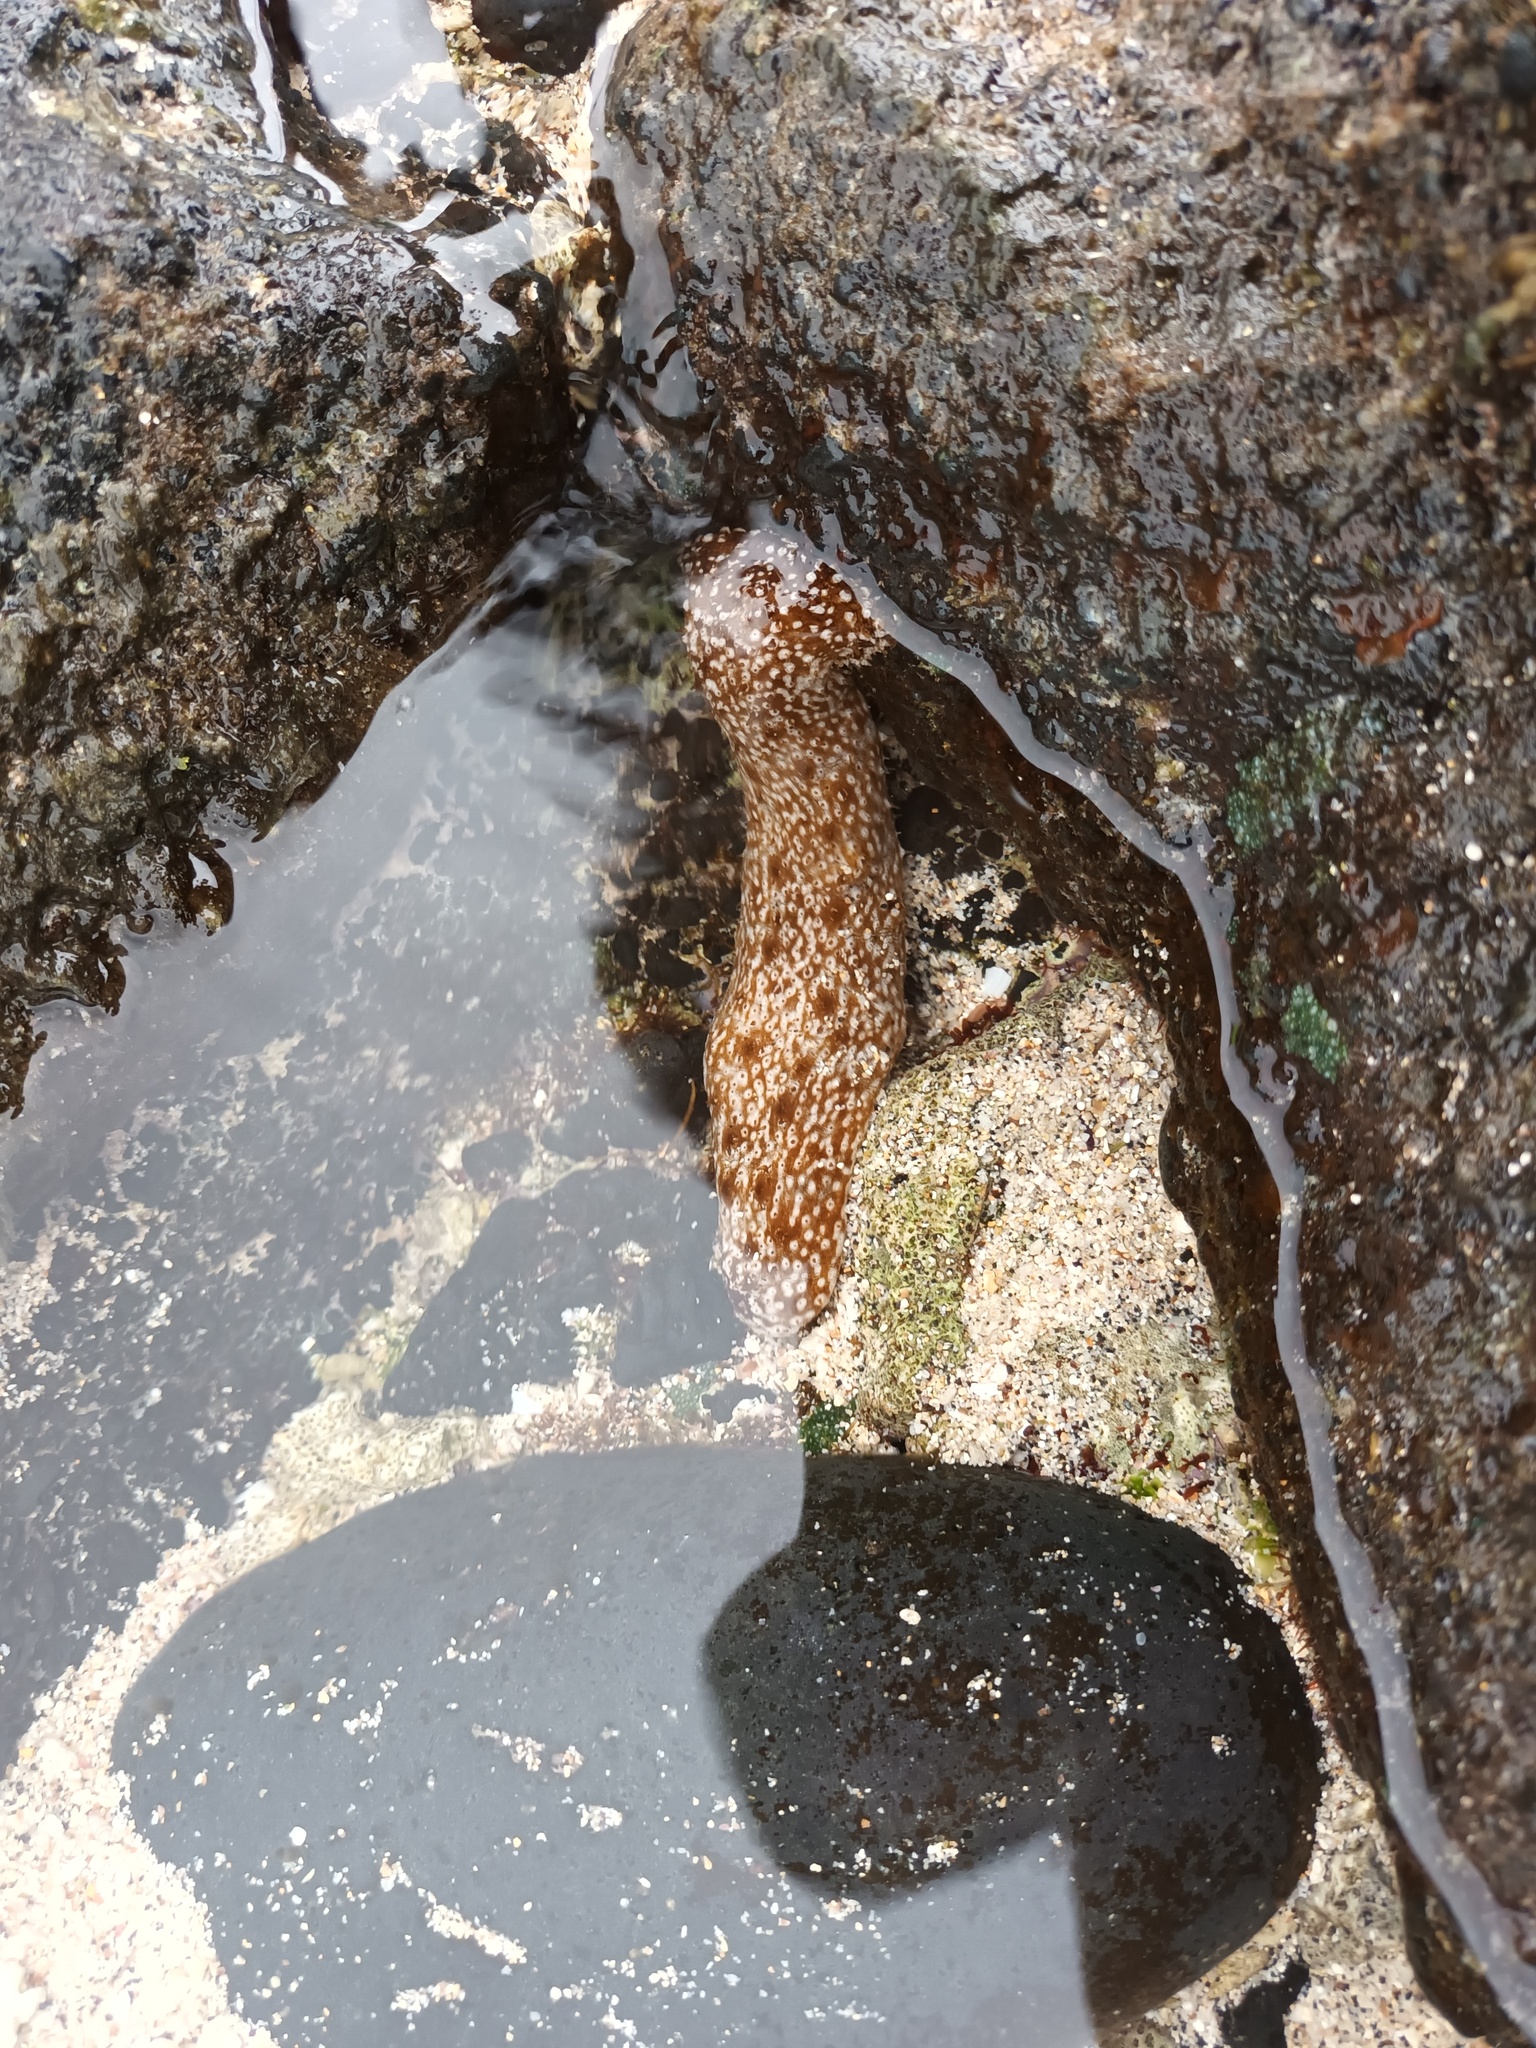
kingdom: Animalia
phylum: Echinodermata
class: Holothuroidea
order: Holothuriida
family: Holothuriidae
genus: Actinopyga
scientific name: Actinopyga varians
